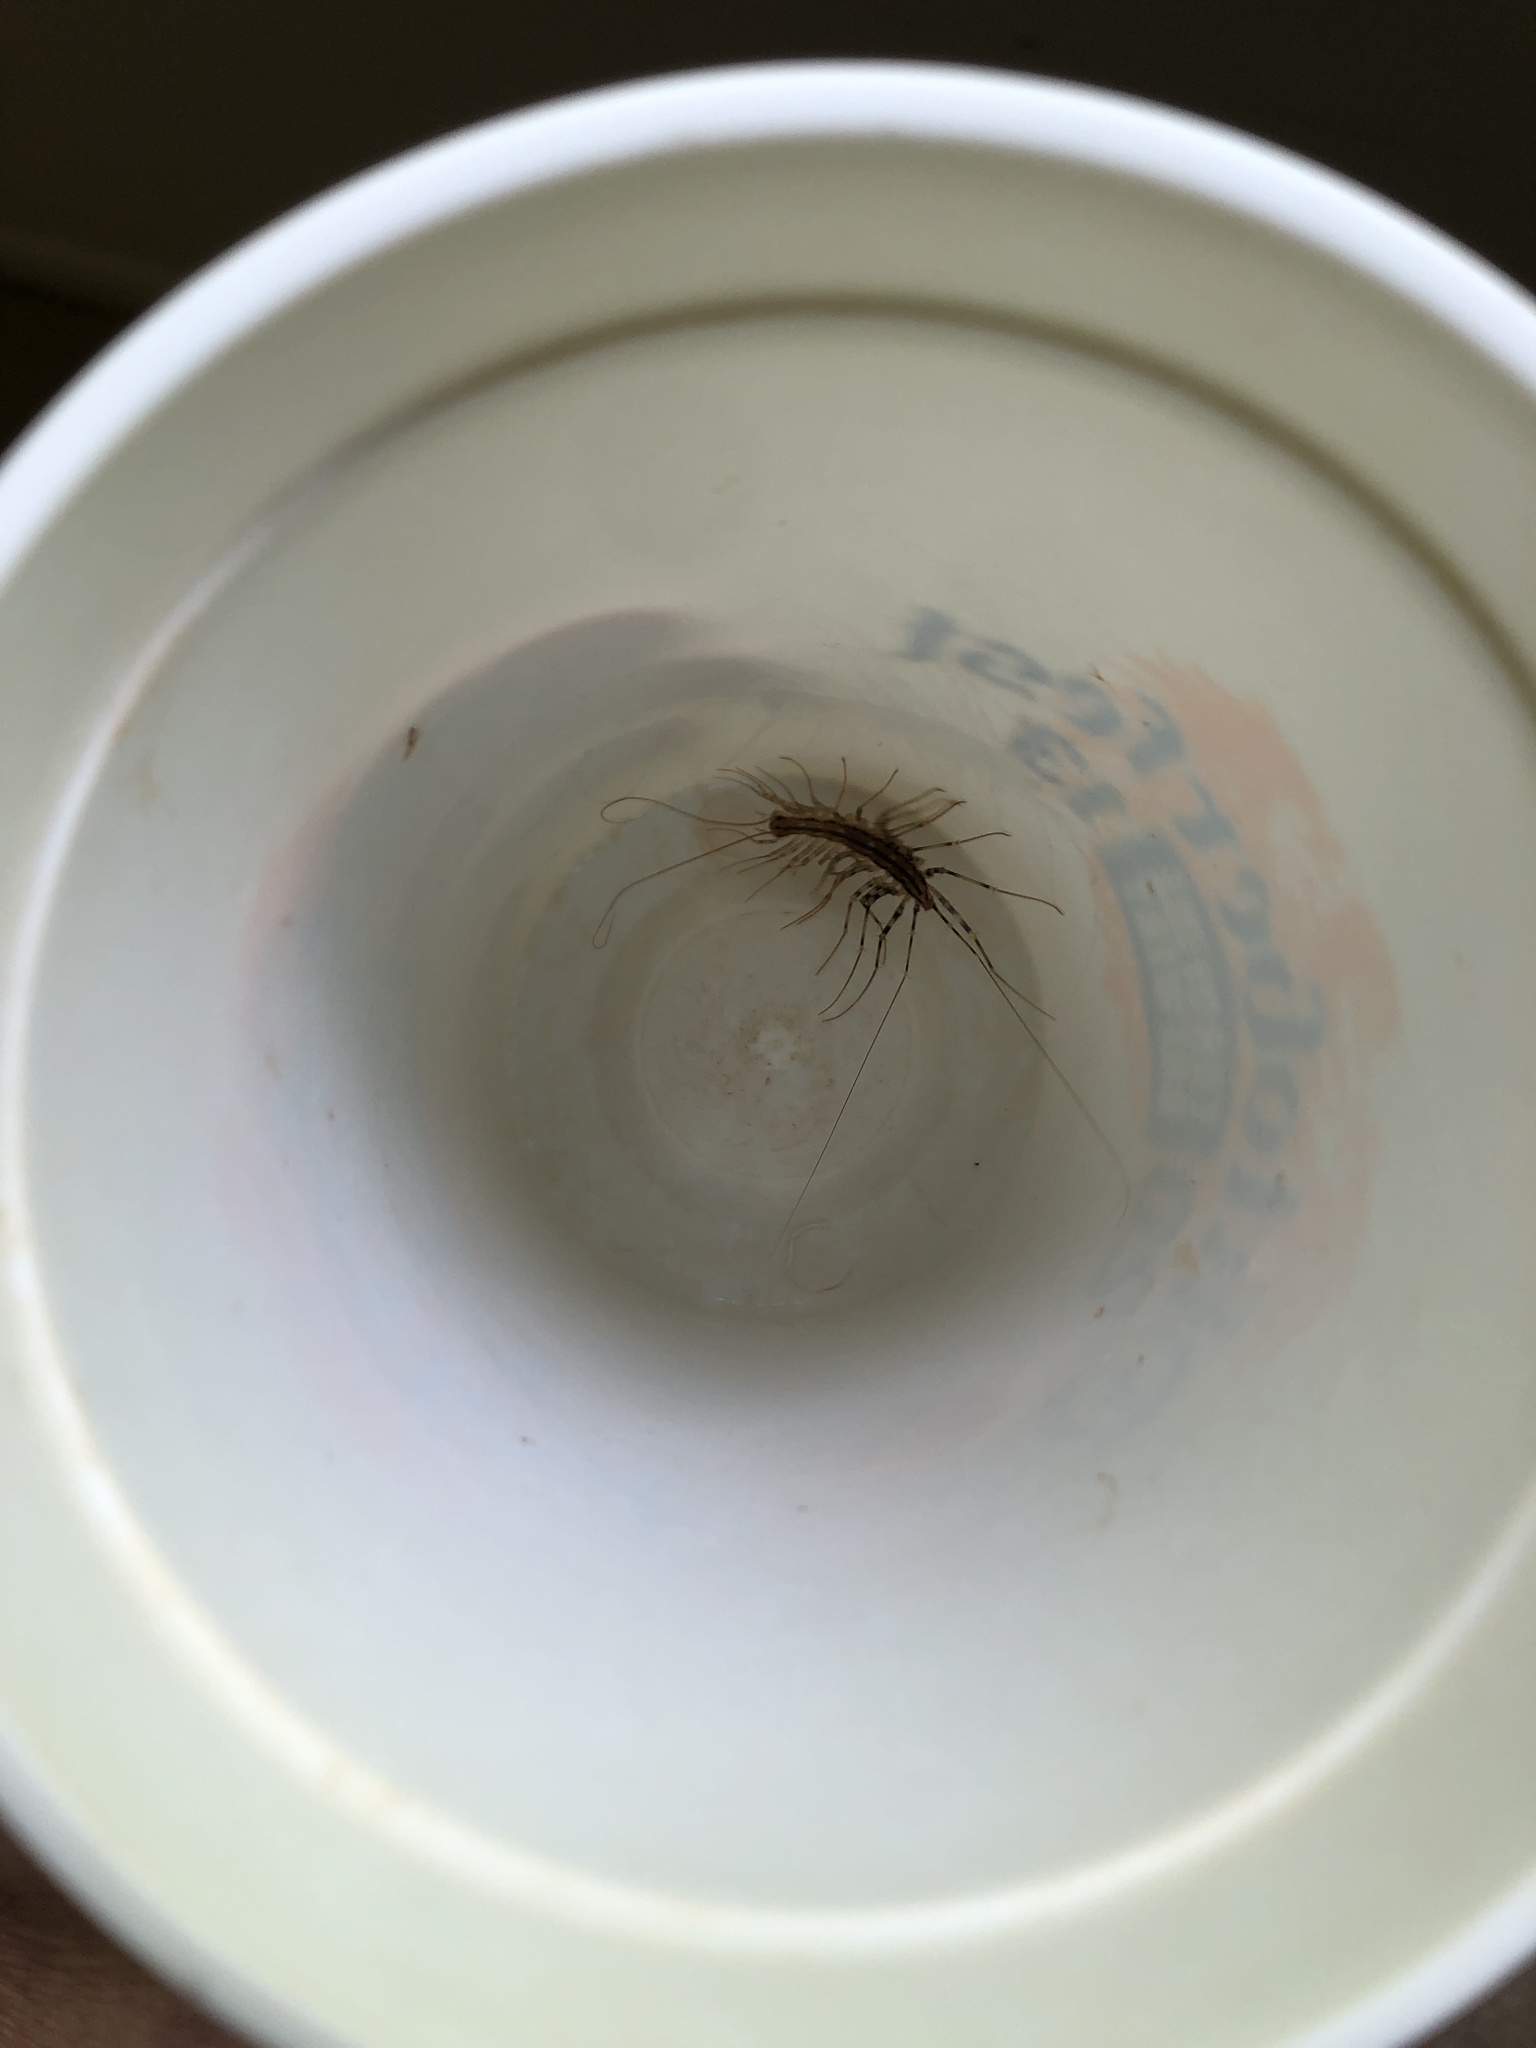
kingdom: Animalia
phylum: Arthropoda
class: Chilopoda
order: Scutigeromorpha
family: Scutigeridae
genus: Scutigera
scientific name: Scutigera coleoptrata
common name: House centipede
